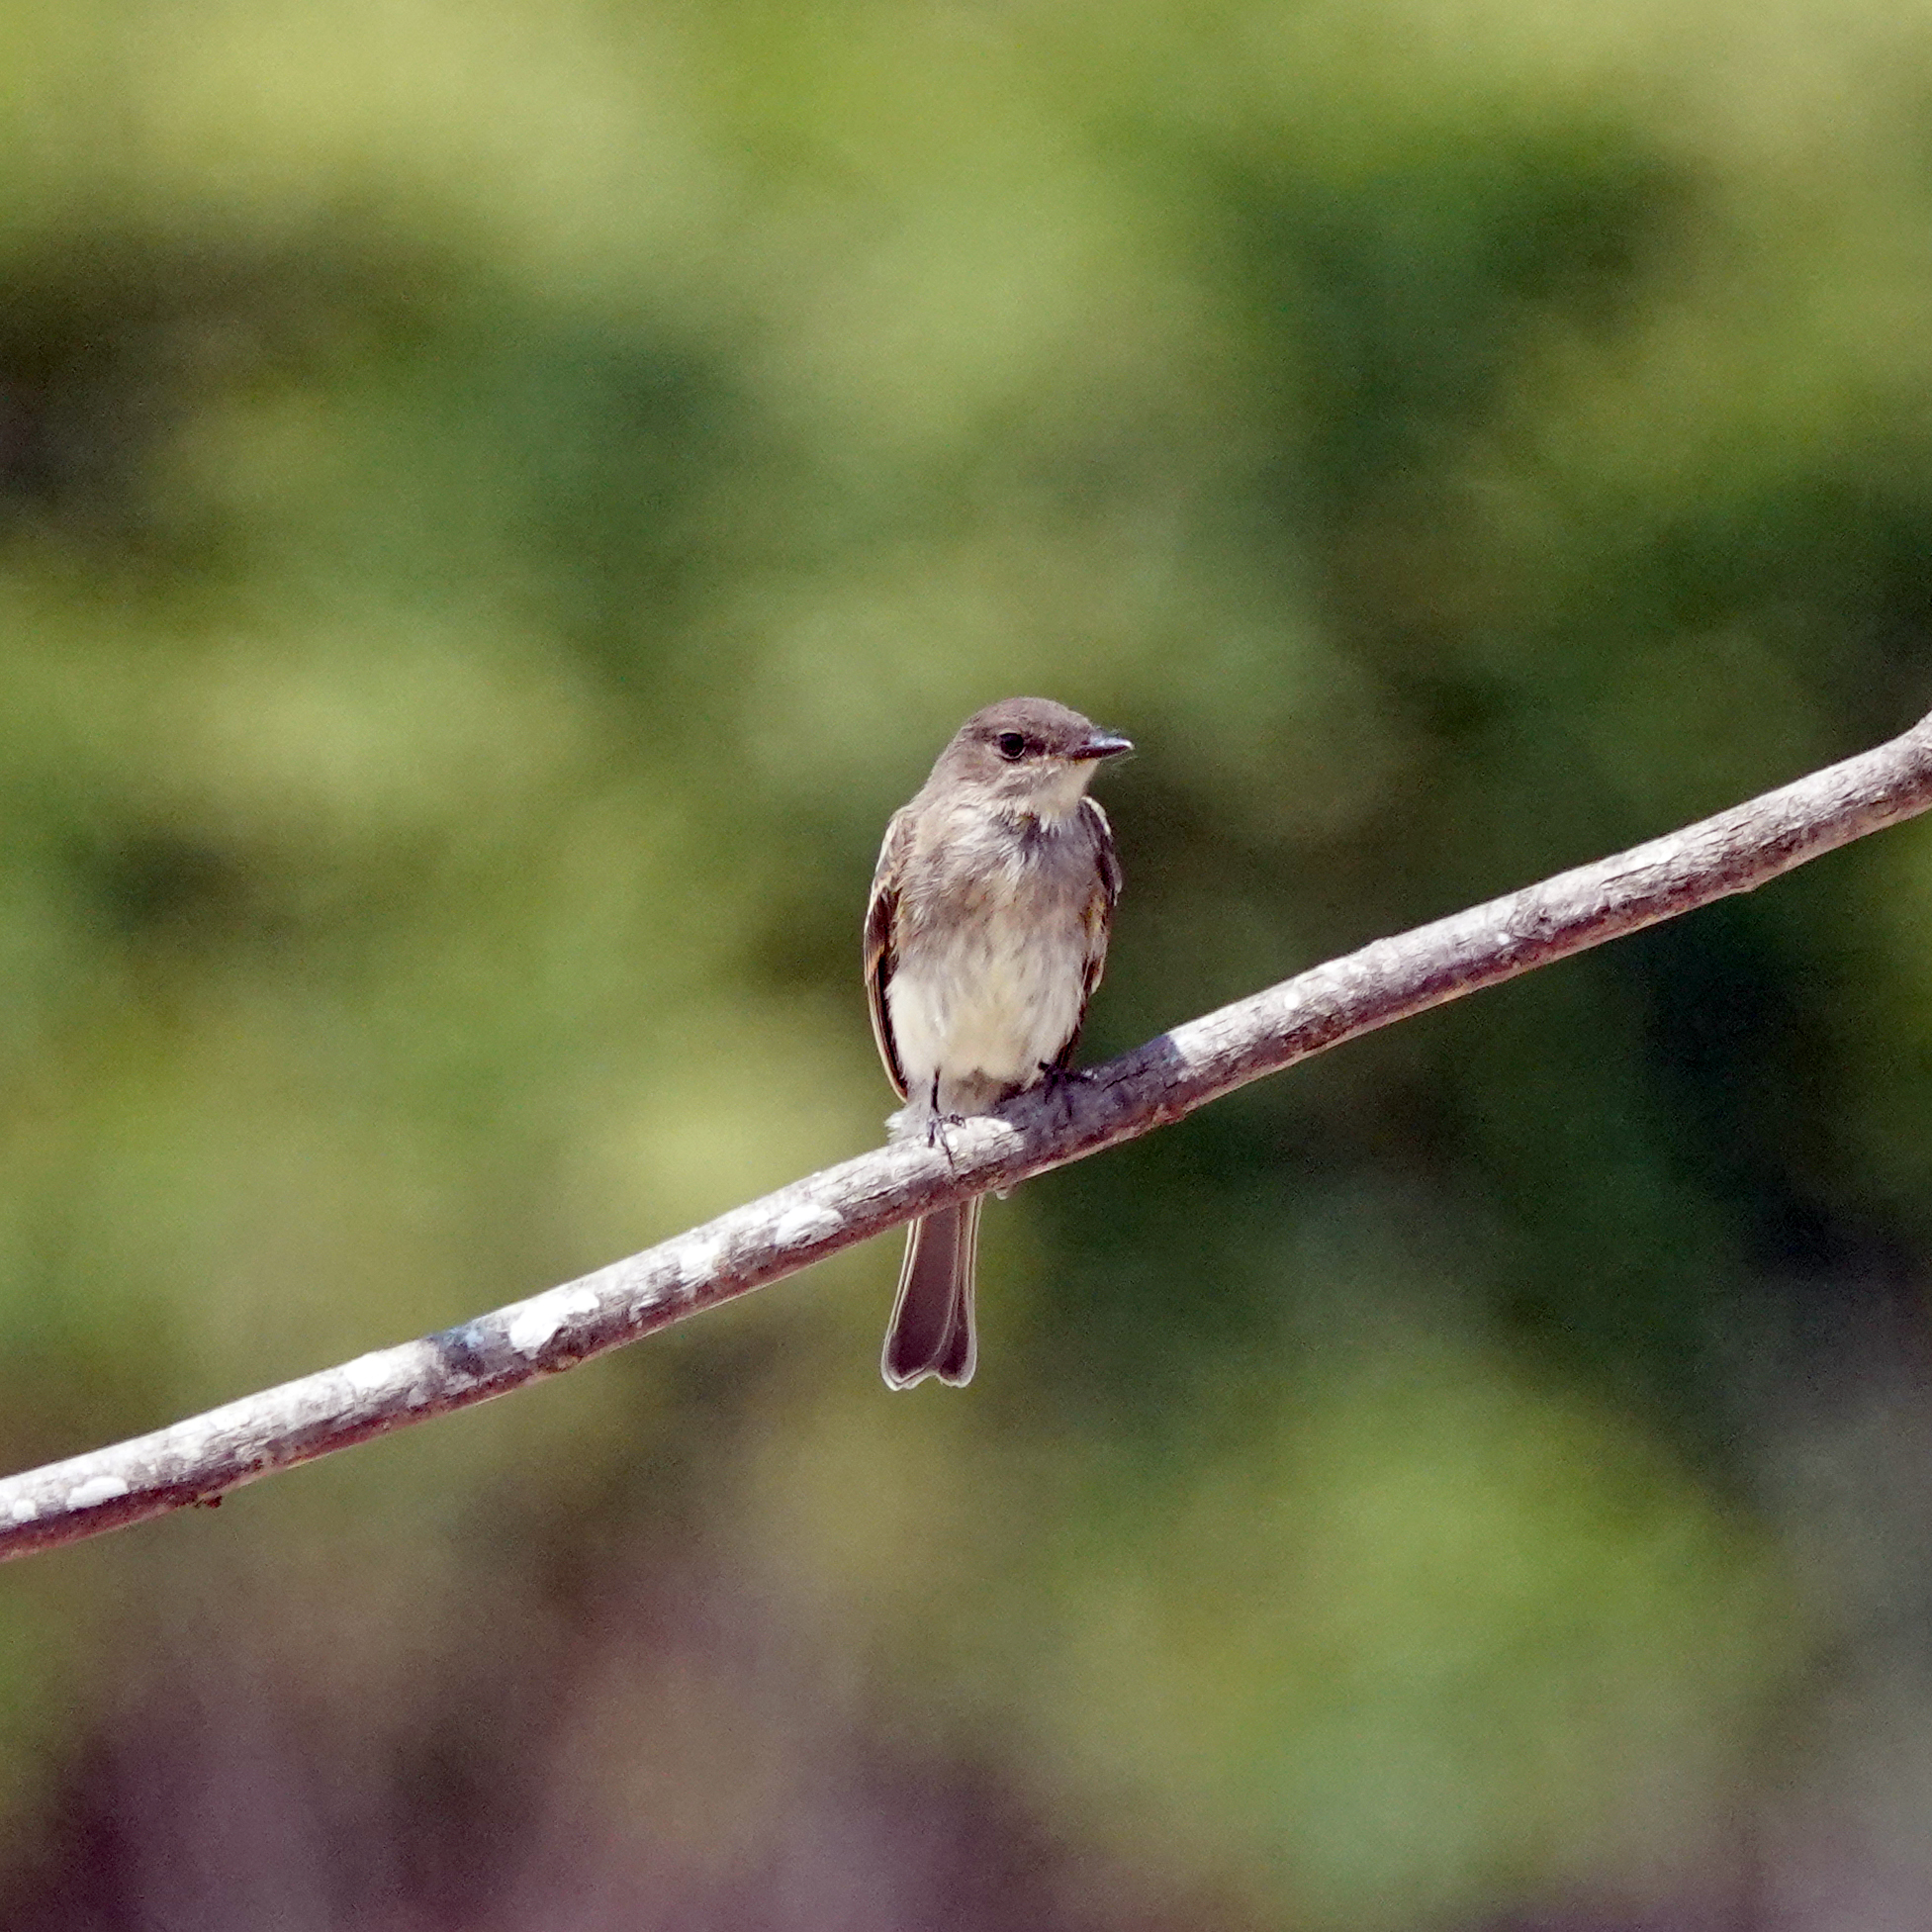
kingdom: Animalia
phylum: Chordata
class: Aves
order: Passeriformes
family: Tyrannidae
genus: Sayornis
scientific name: Sayornis phoebe
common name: Eastern phoebe
